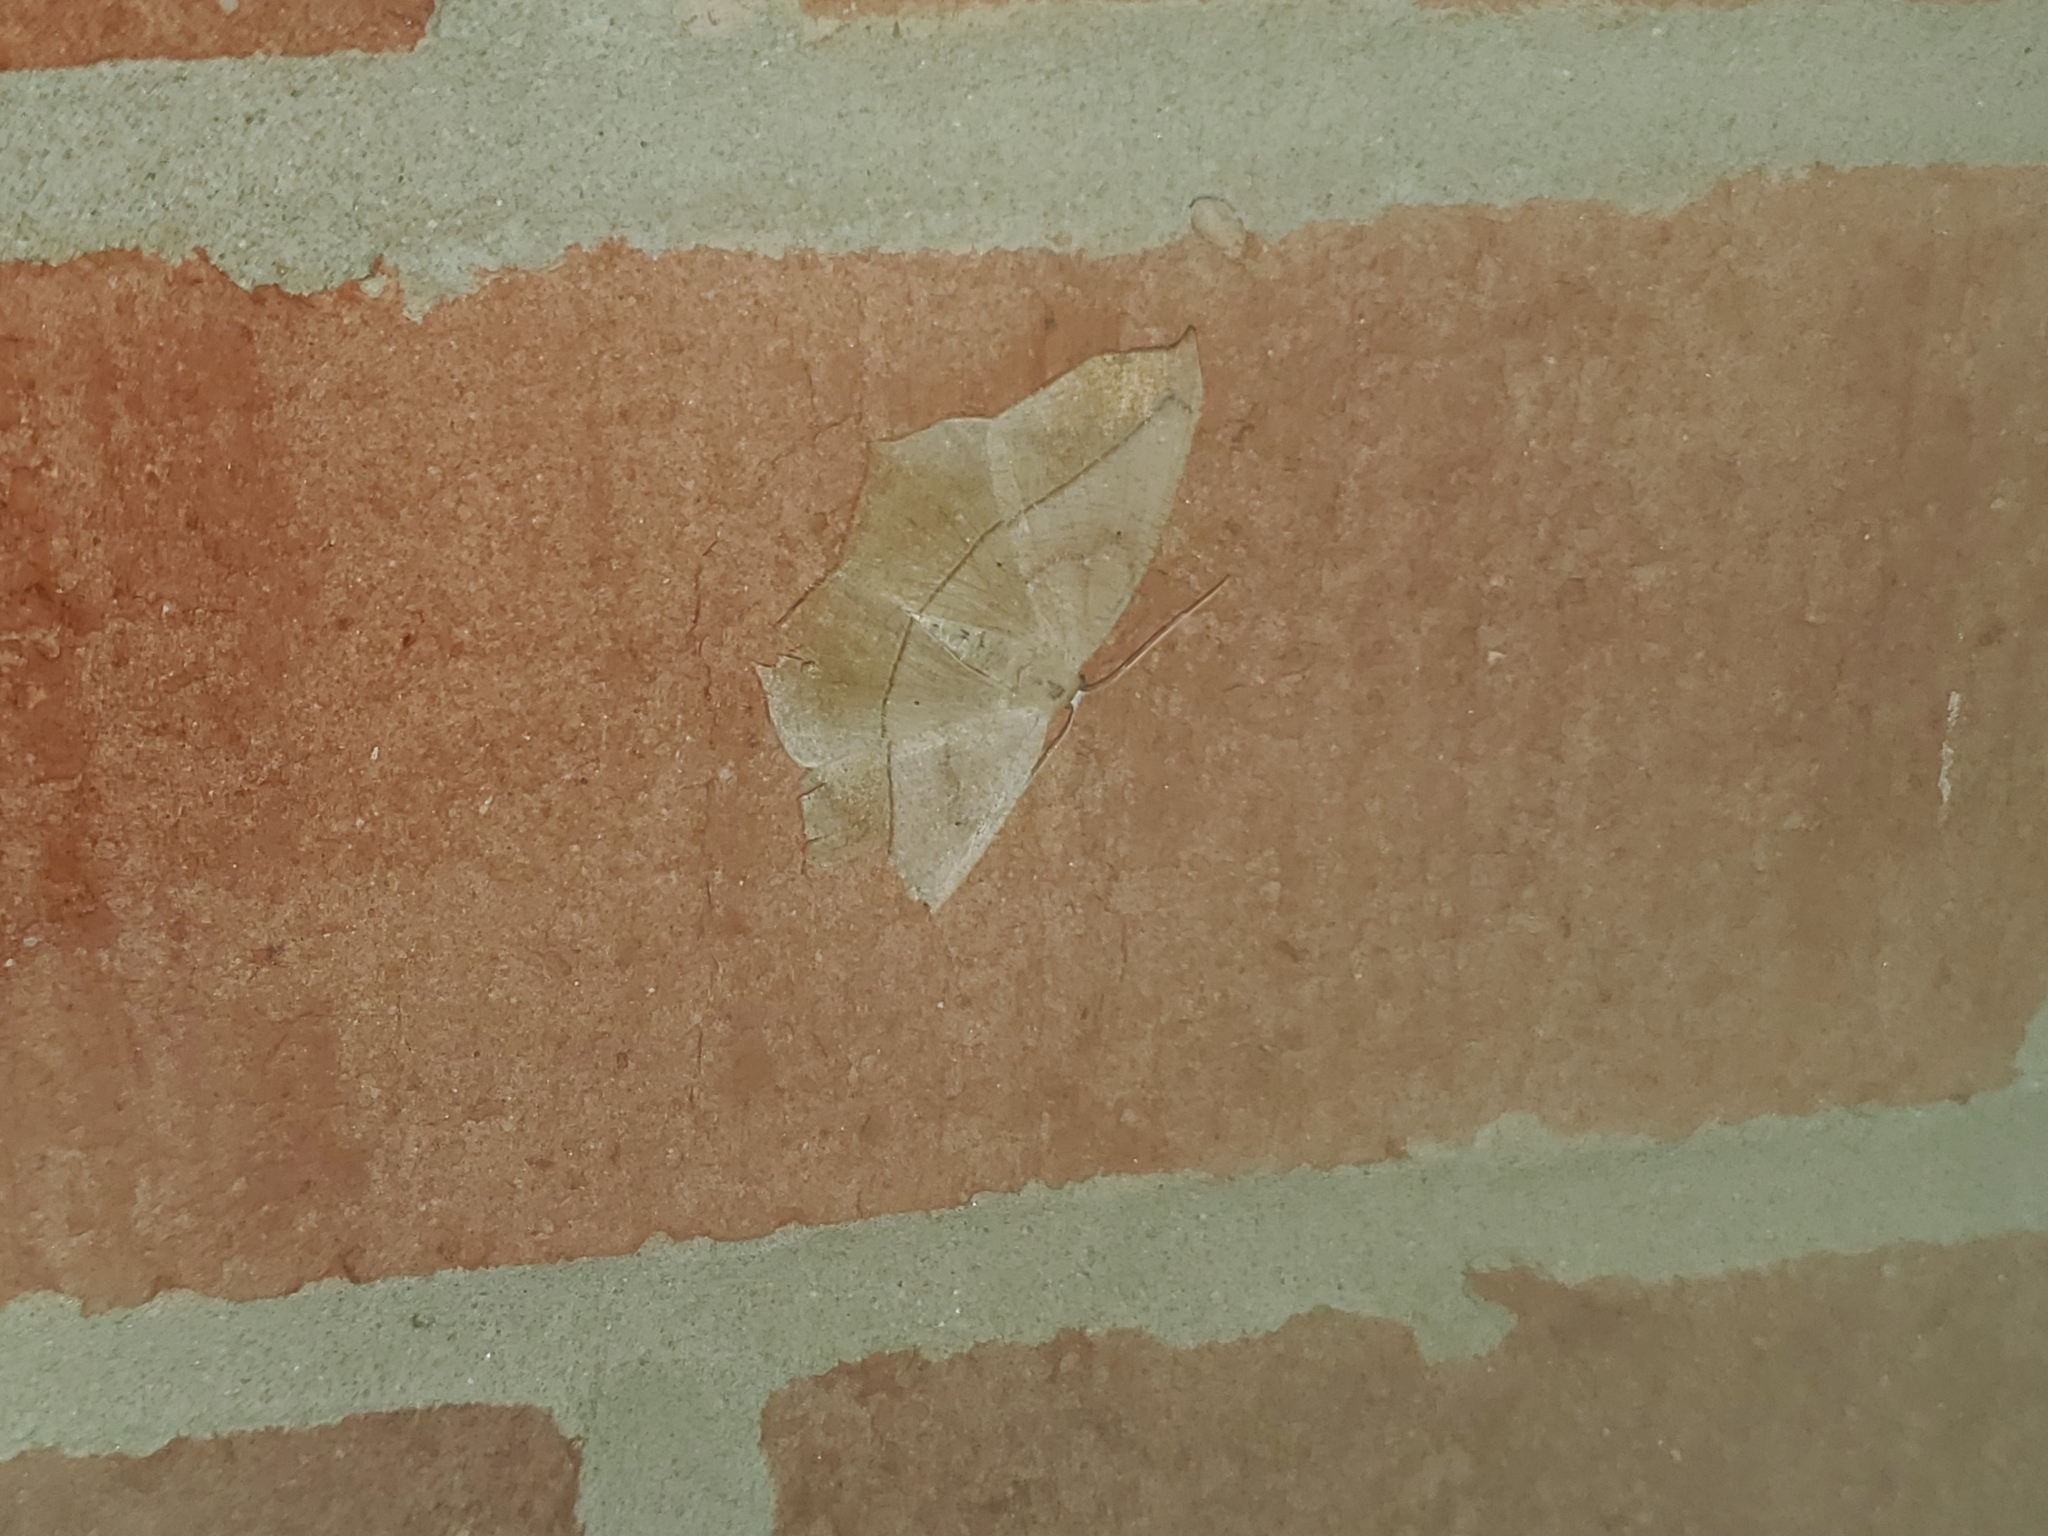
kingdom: Animalia
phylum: Arthropoda
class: Insecta
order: Lepidoptera
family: Geometridae
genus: Prochoerodes
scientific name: Prochoerodes lineola
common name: Large maple spanworm
